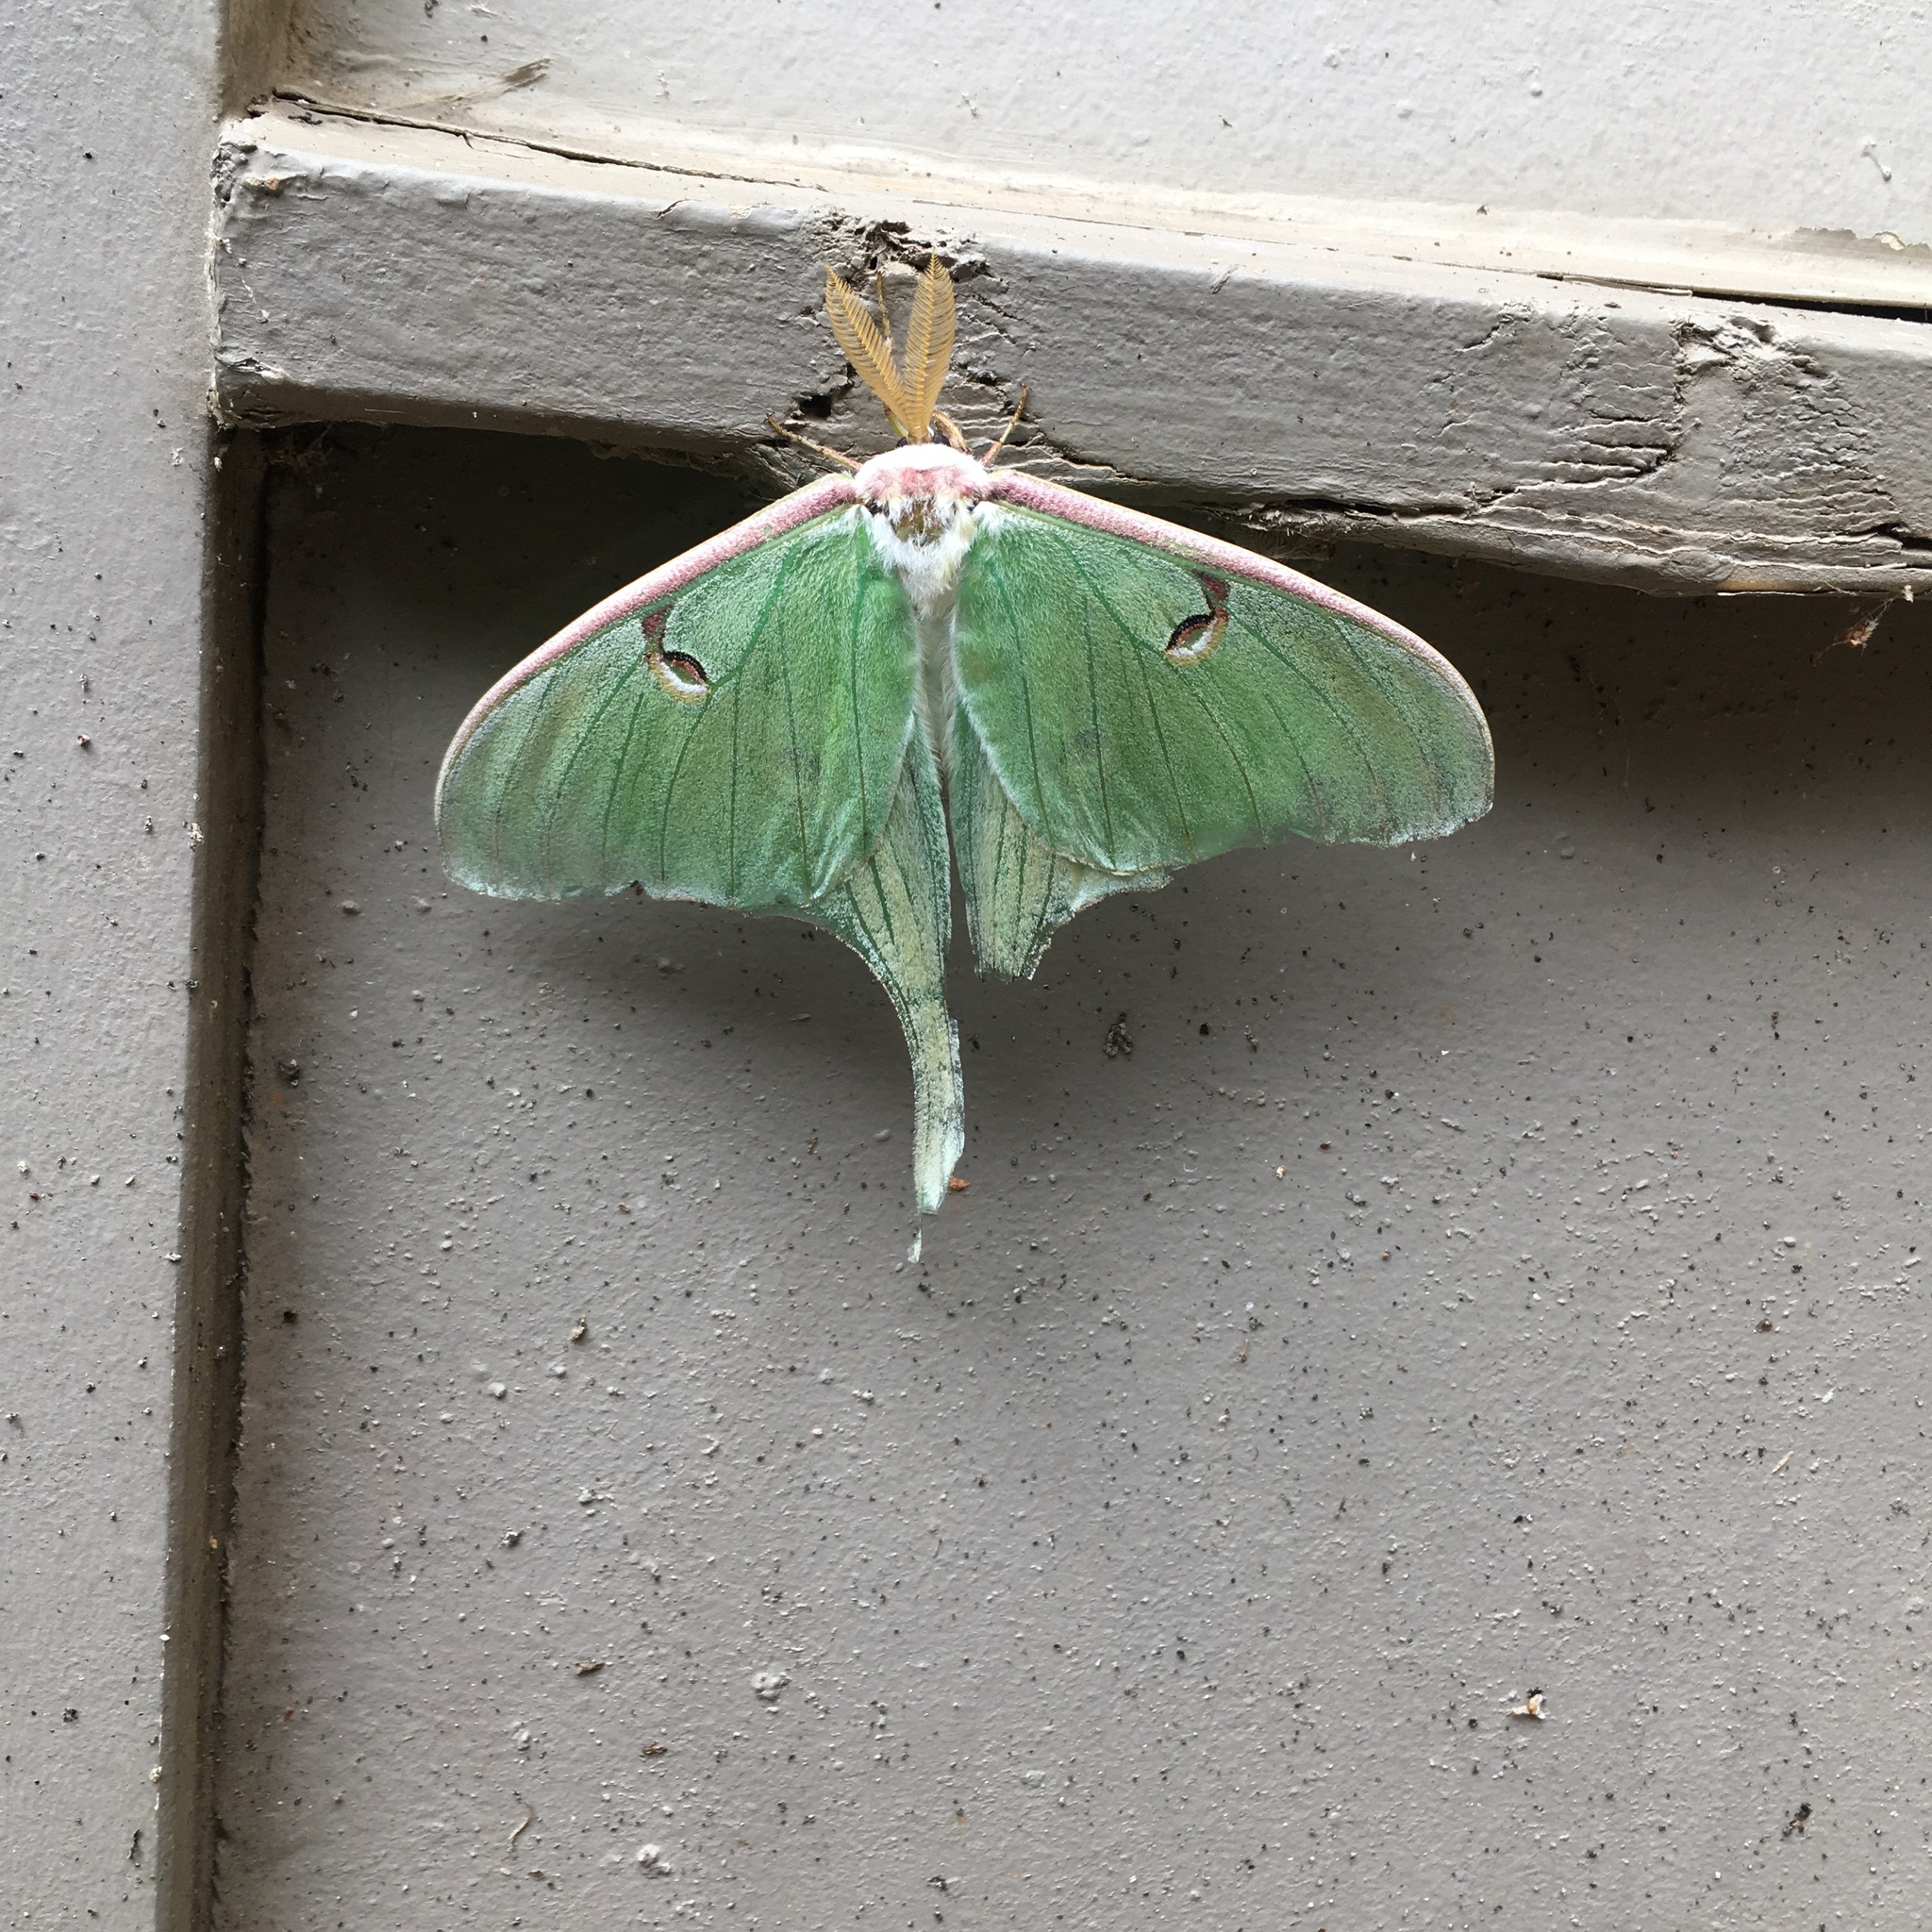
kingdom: Animalia
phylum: Arthropoda
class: Insecta
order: Lepidoptera
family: Saturniidae
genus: Actias
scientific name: Actias luna
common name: Luna moth
